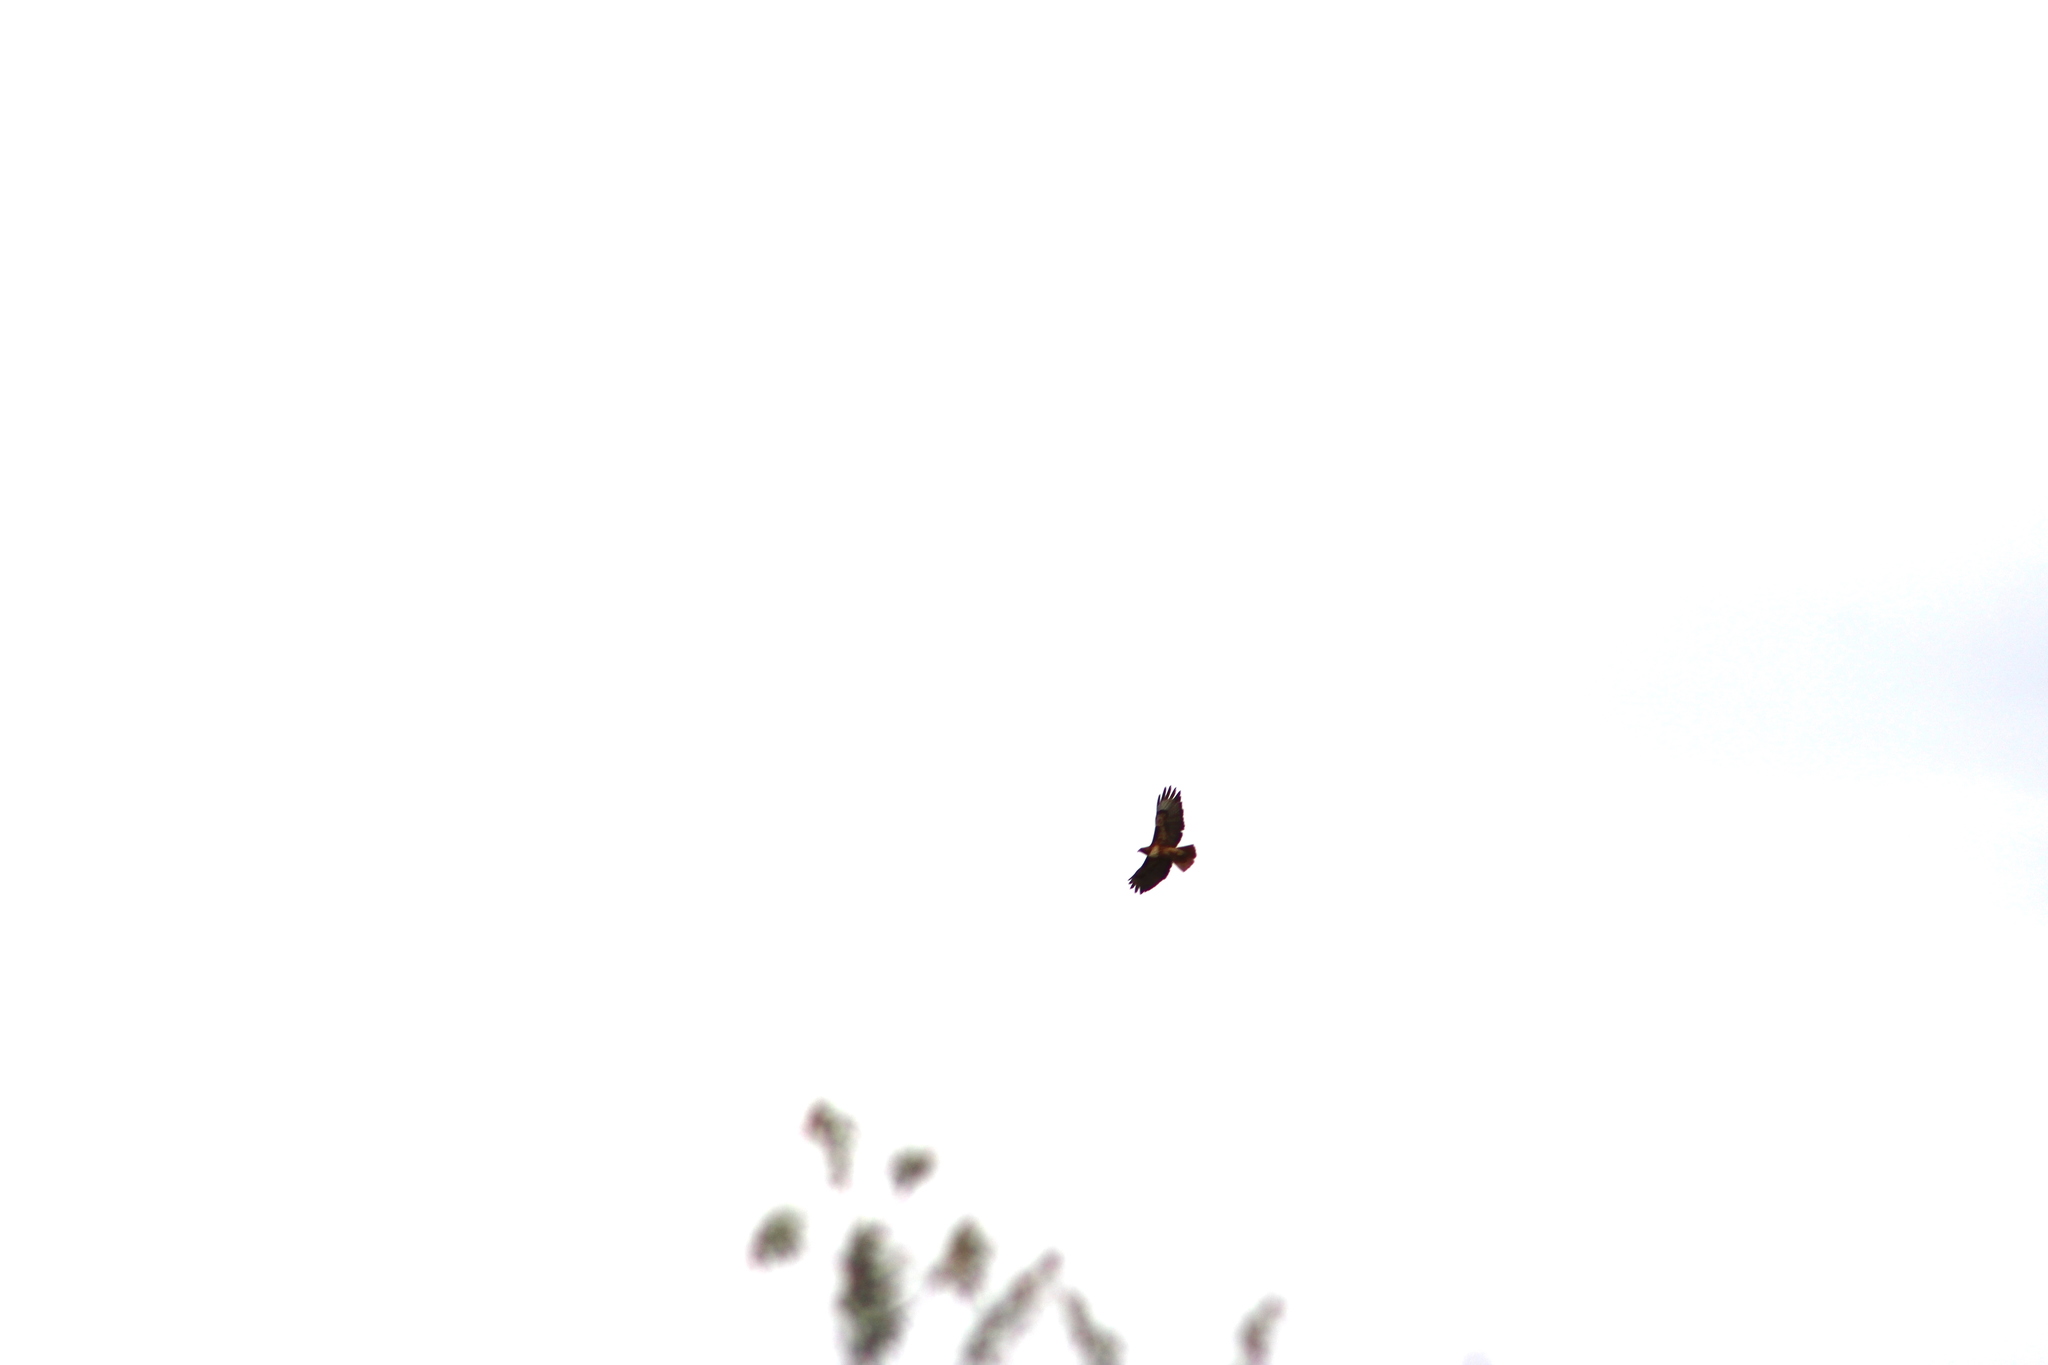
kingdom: Animalia
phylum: Chordata
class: Aves
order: Accipitriformes
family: Accipitridae
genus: Buteo
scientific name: Buteo jamaicensis
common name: Red-tailed hawk
